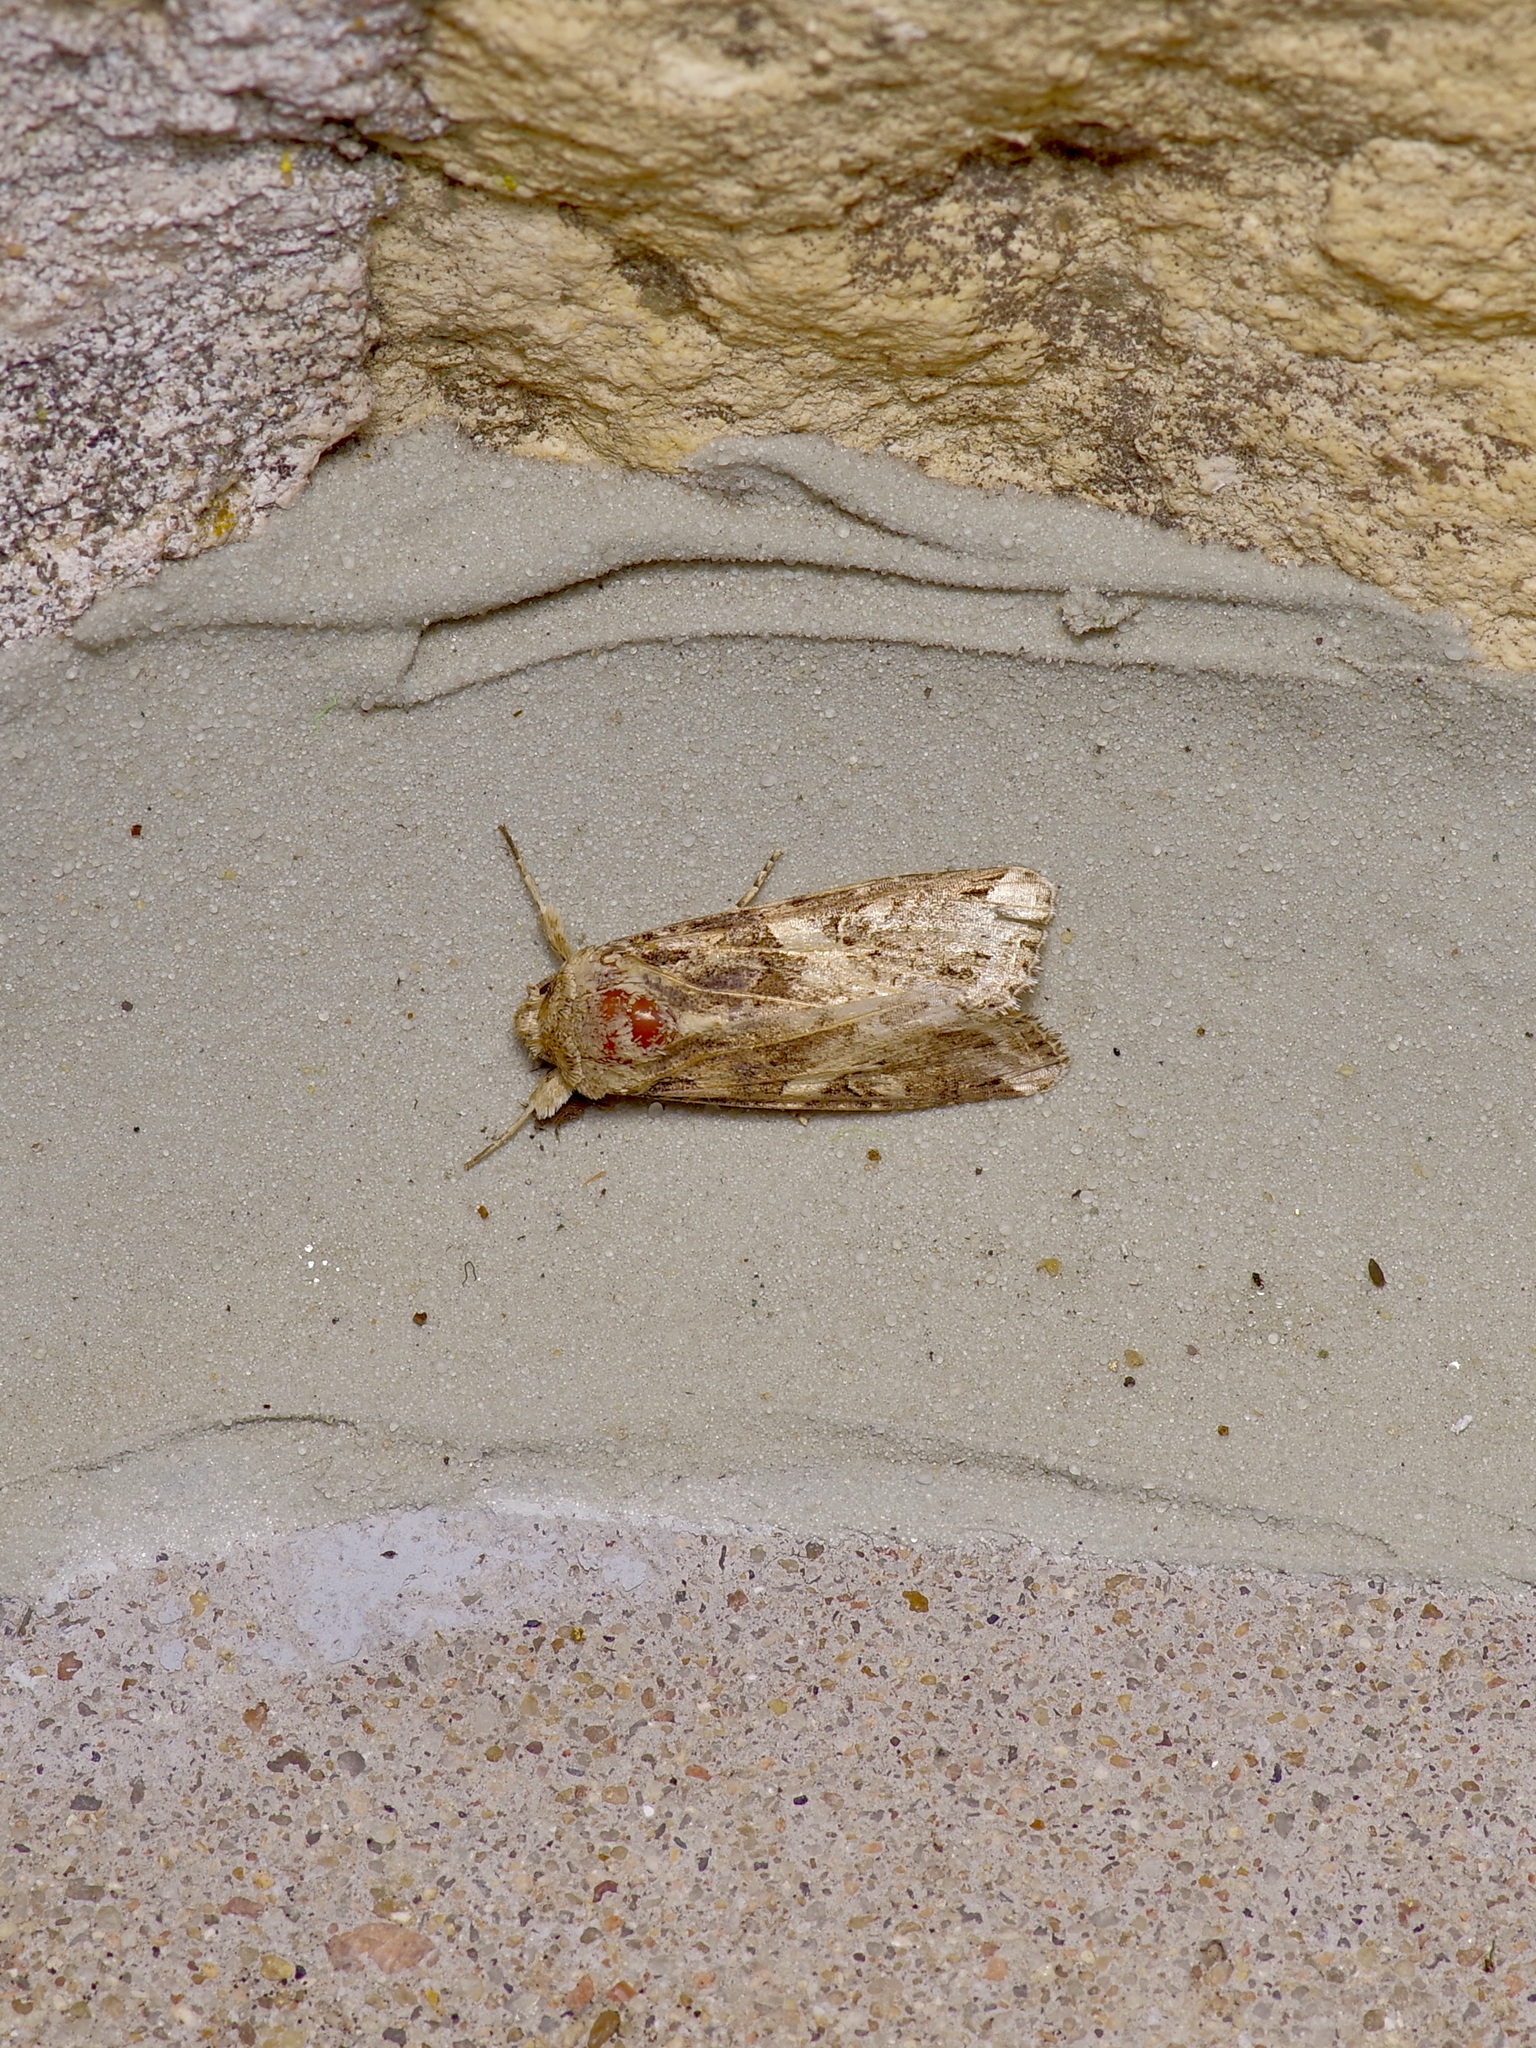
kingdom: Animalia
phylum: Arthropoda
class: Insecta
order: Lepidoptera
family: Noctuidae
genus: Spodoptera
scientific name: Spodoptera ornithogalli
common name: Yellow-striped armyworm
